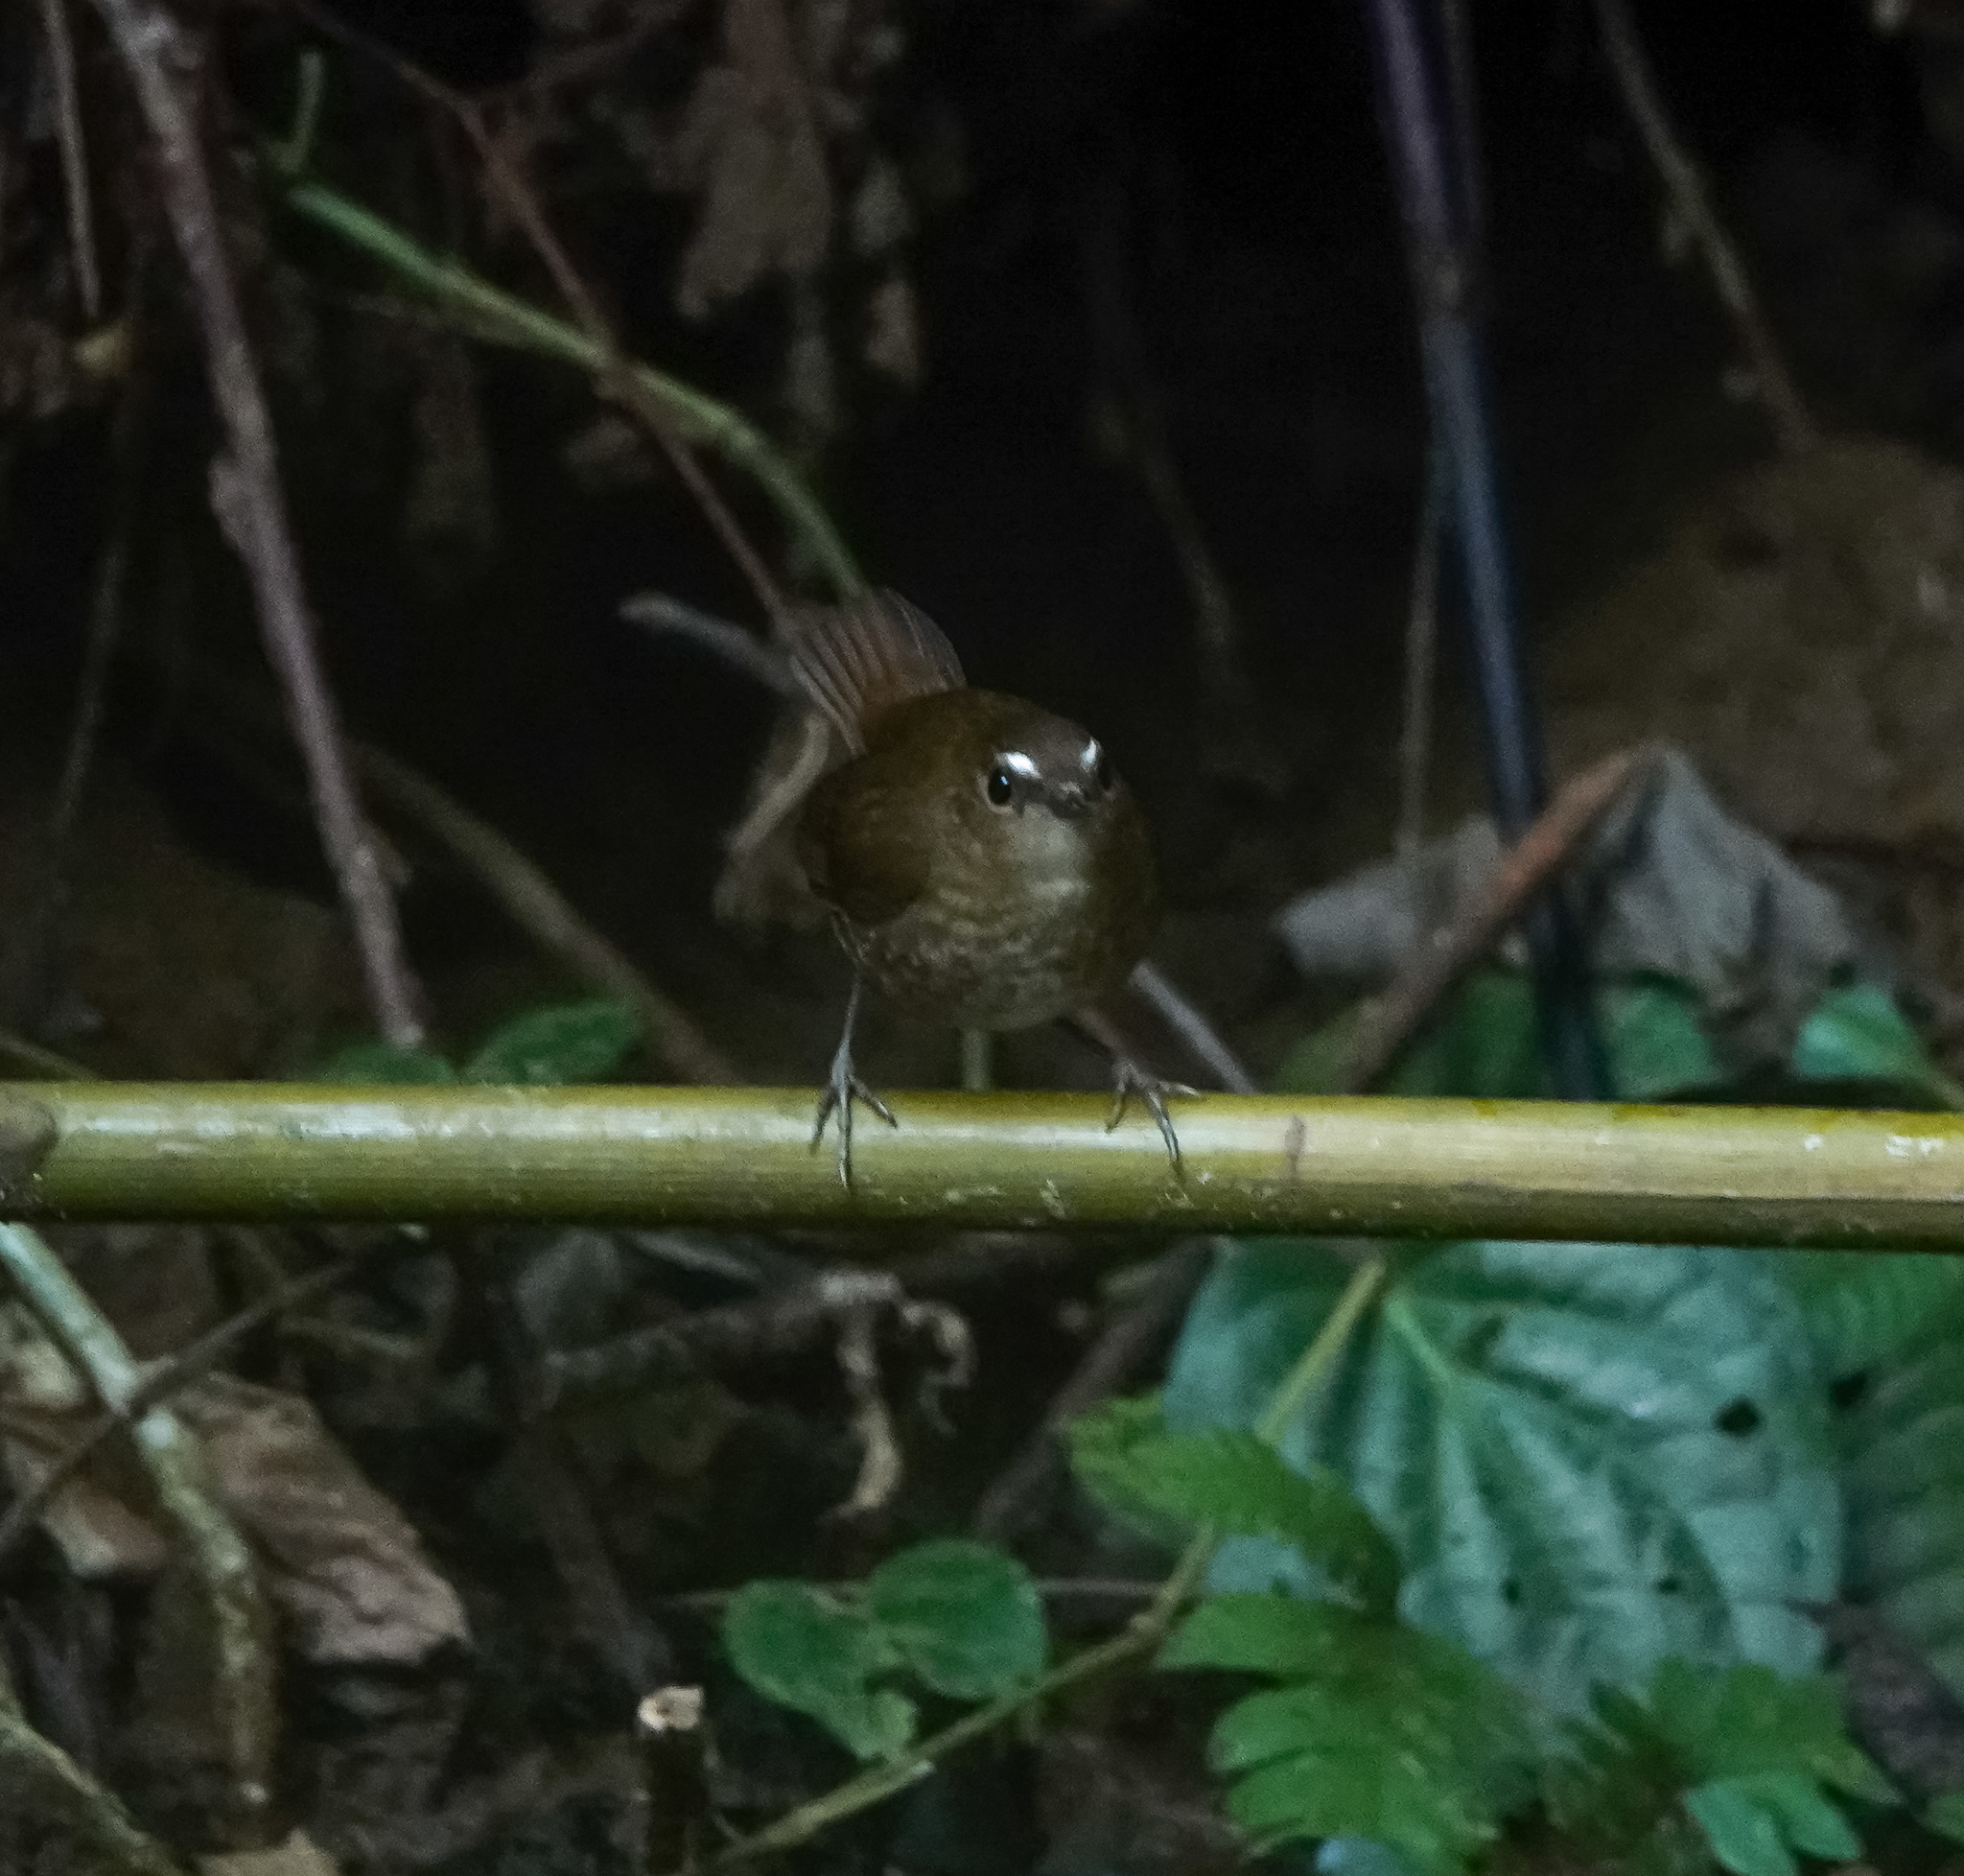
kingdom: Animalia
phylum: Chordata
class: Aves
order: Passeriformes
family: Muscicapidae
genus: Brachypteryx
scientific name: Brachypteryx leucophris
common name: Lesser shortwing
